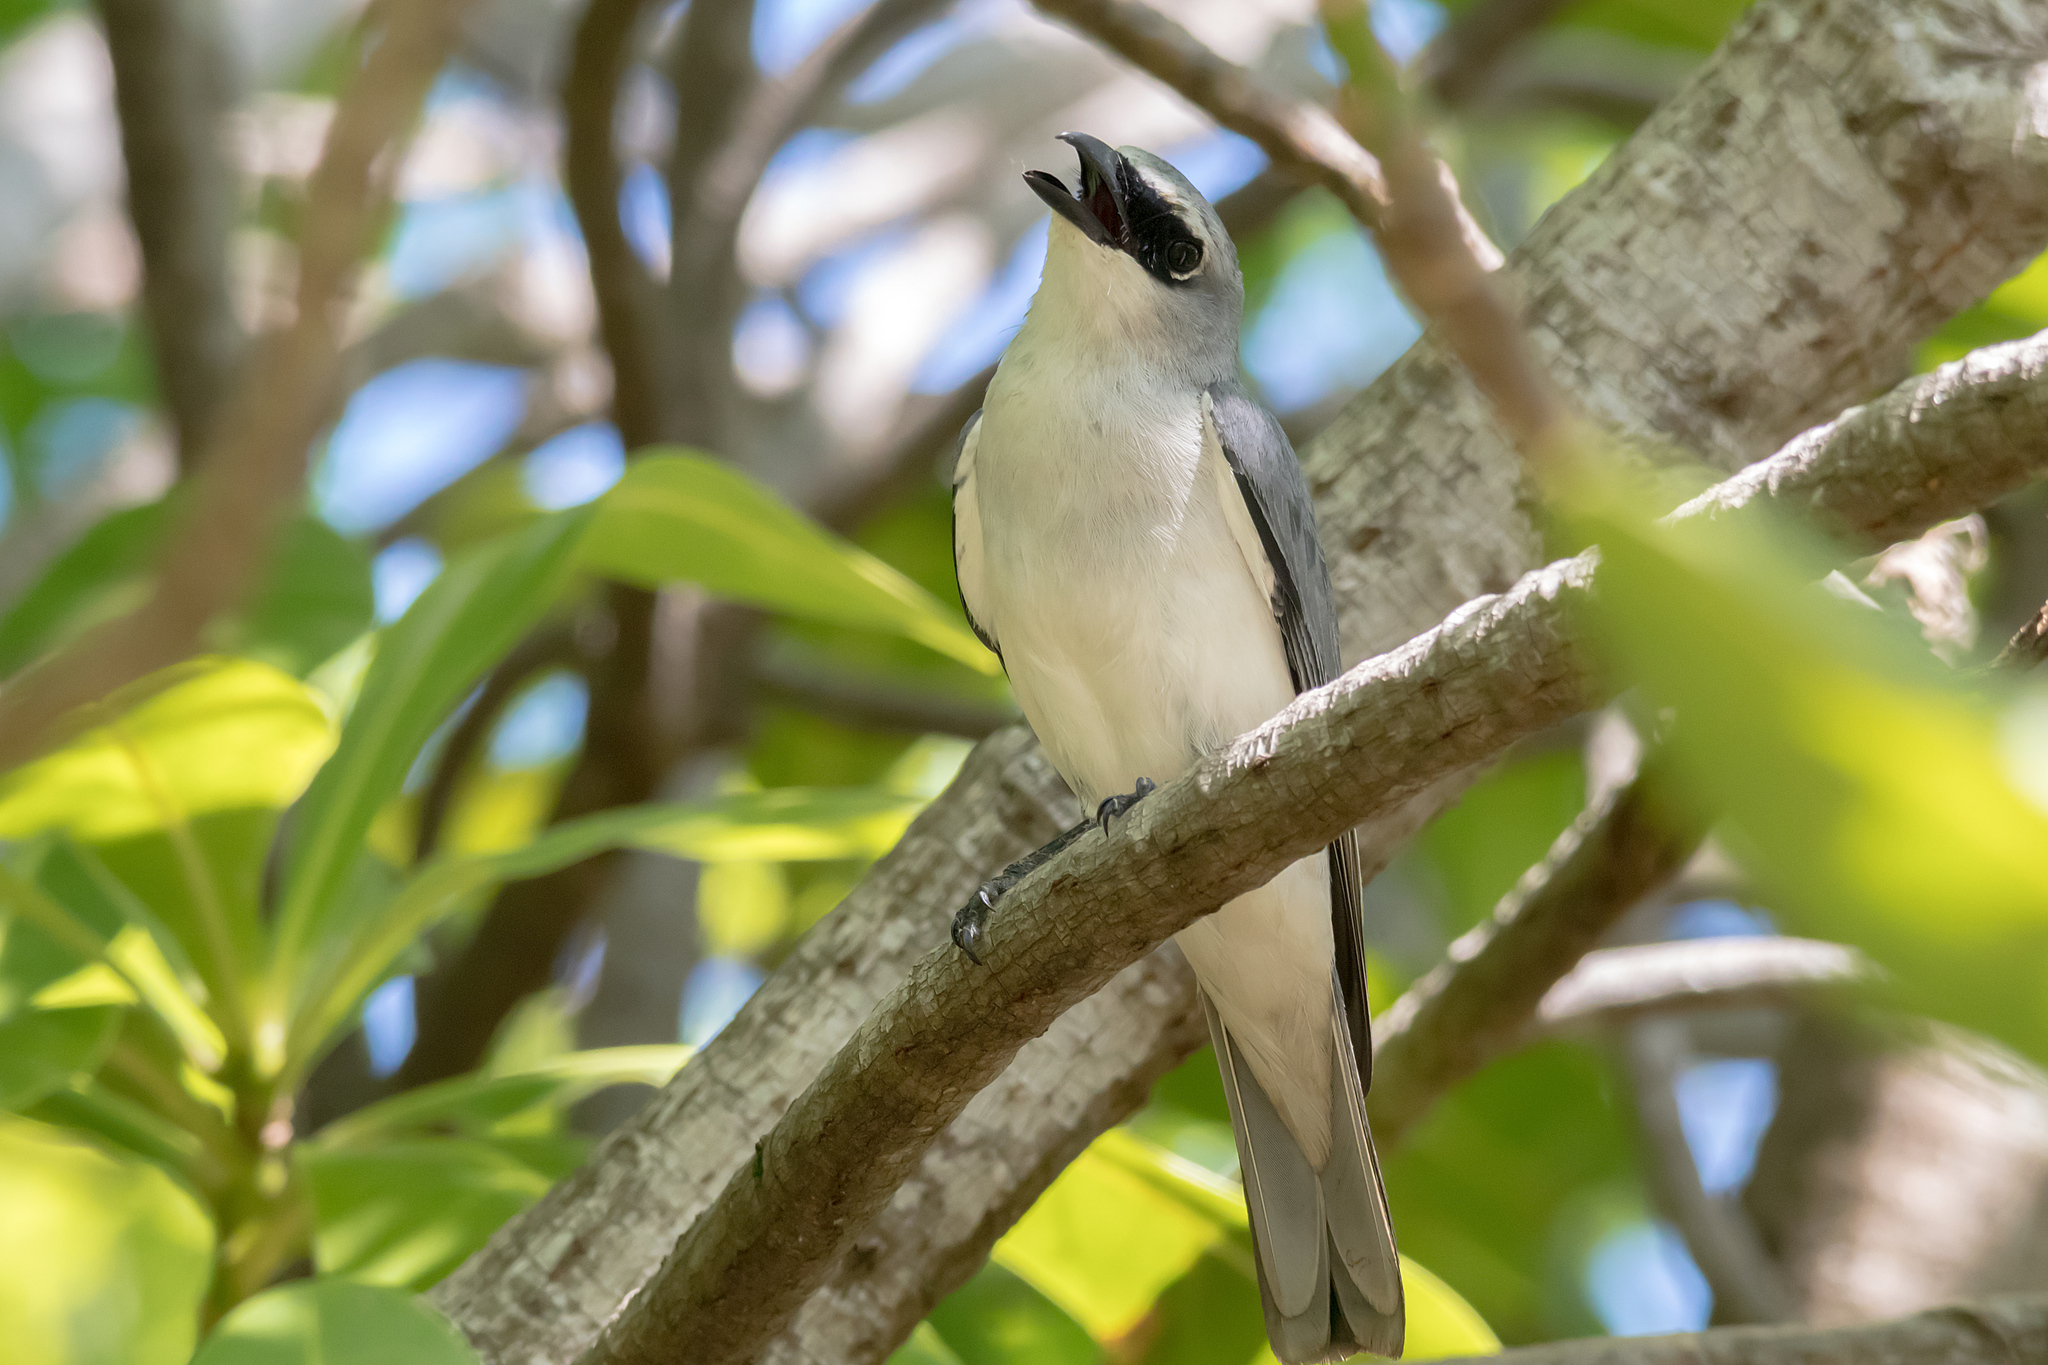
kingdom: Animalia
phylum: Chordata
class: Aves
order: Passeriformes
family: Campephagidae
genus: Coracina
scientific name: Coracina papuensis
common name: White-bellied cuckooshrike
